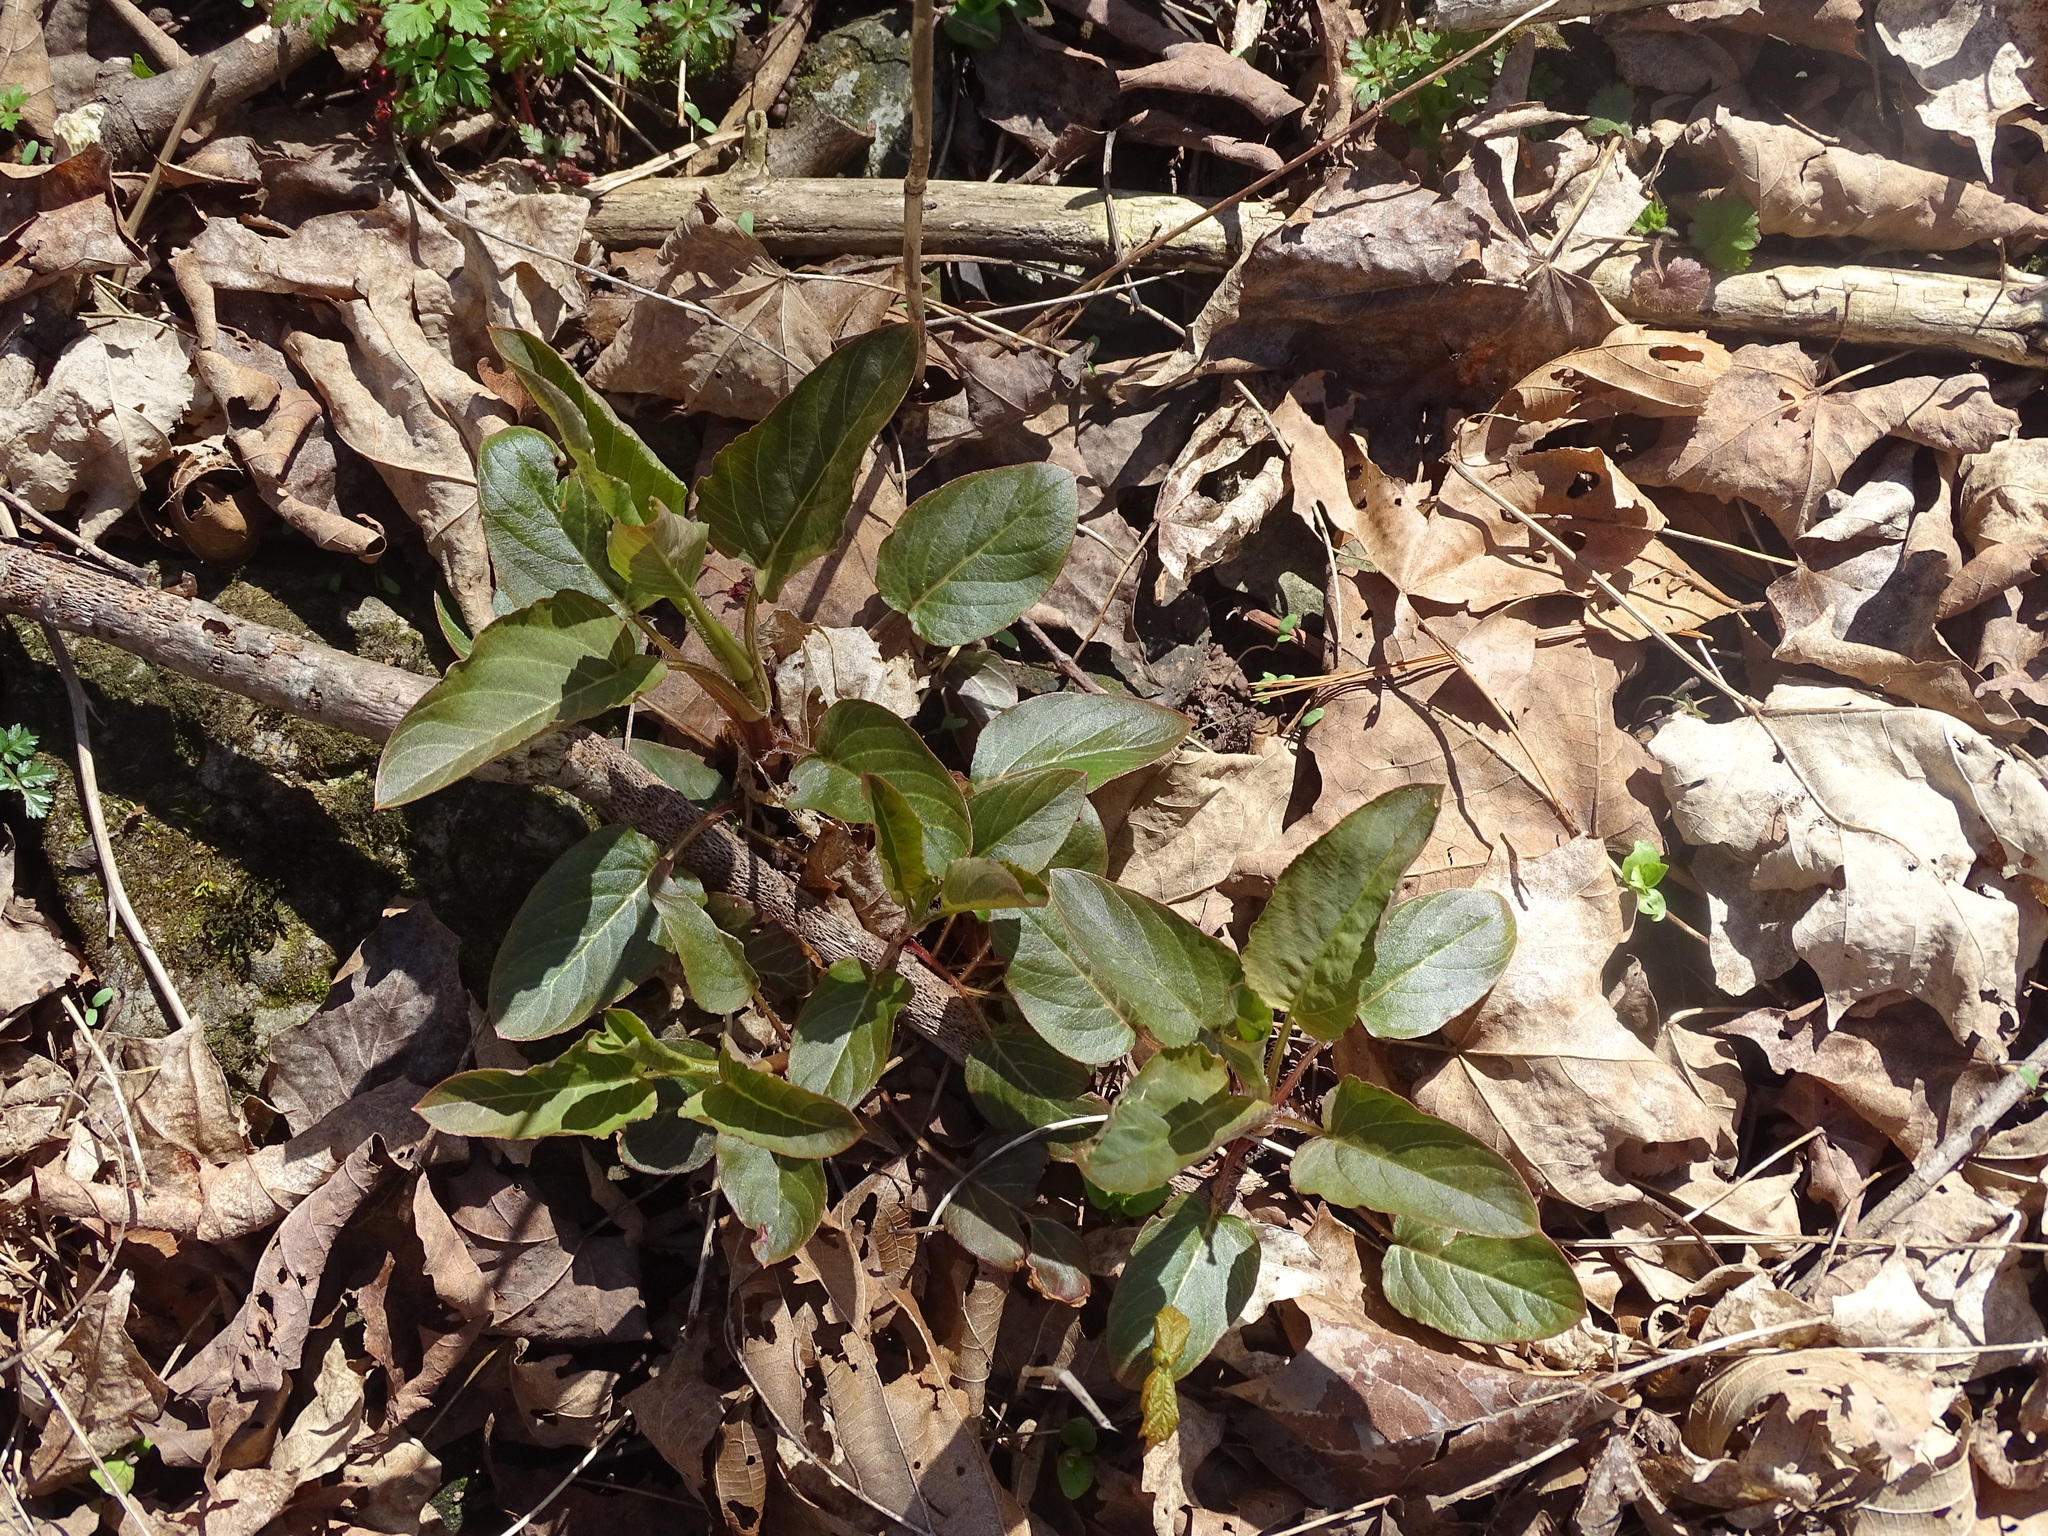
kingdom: Plantae
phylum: Tracheophyta
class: Magnoliopsida
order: Ericales
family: Primulaceae
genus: Lysimachia
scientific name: Lysimachia ciliata
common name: Fringed loosestrife
